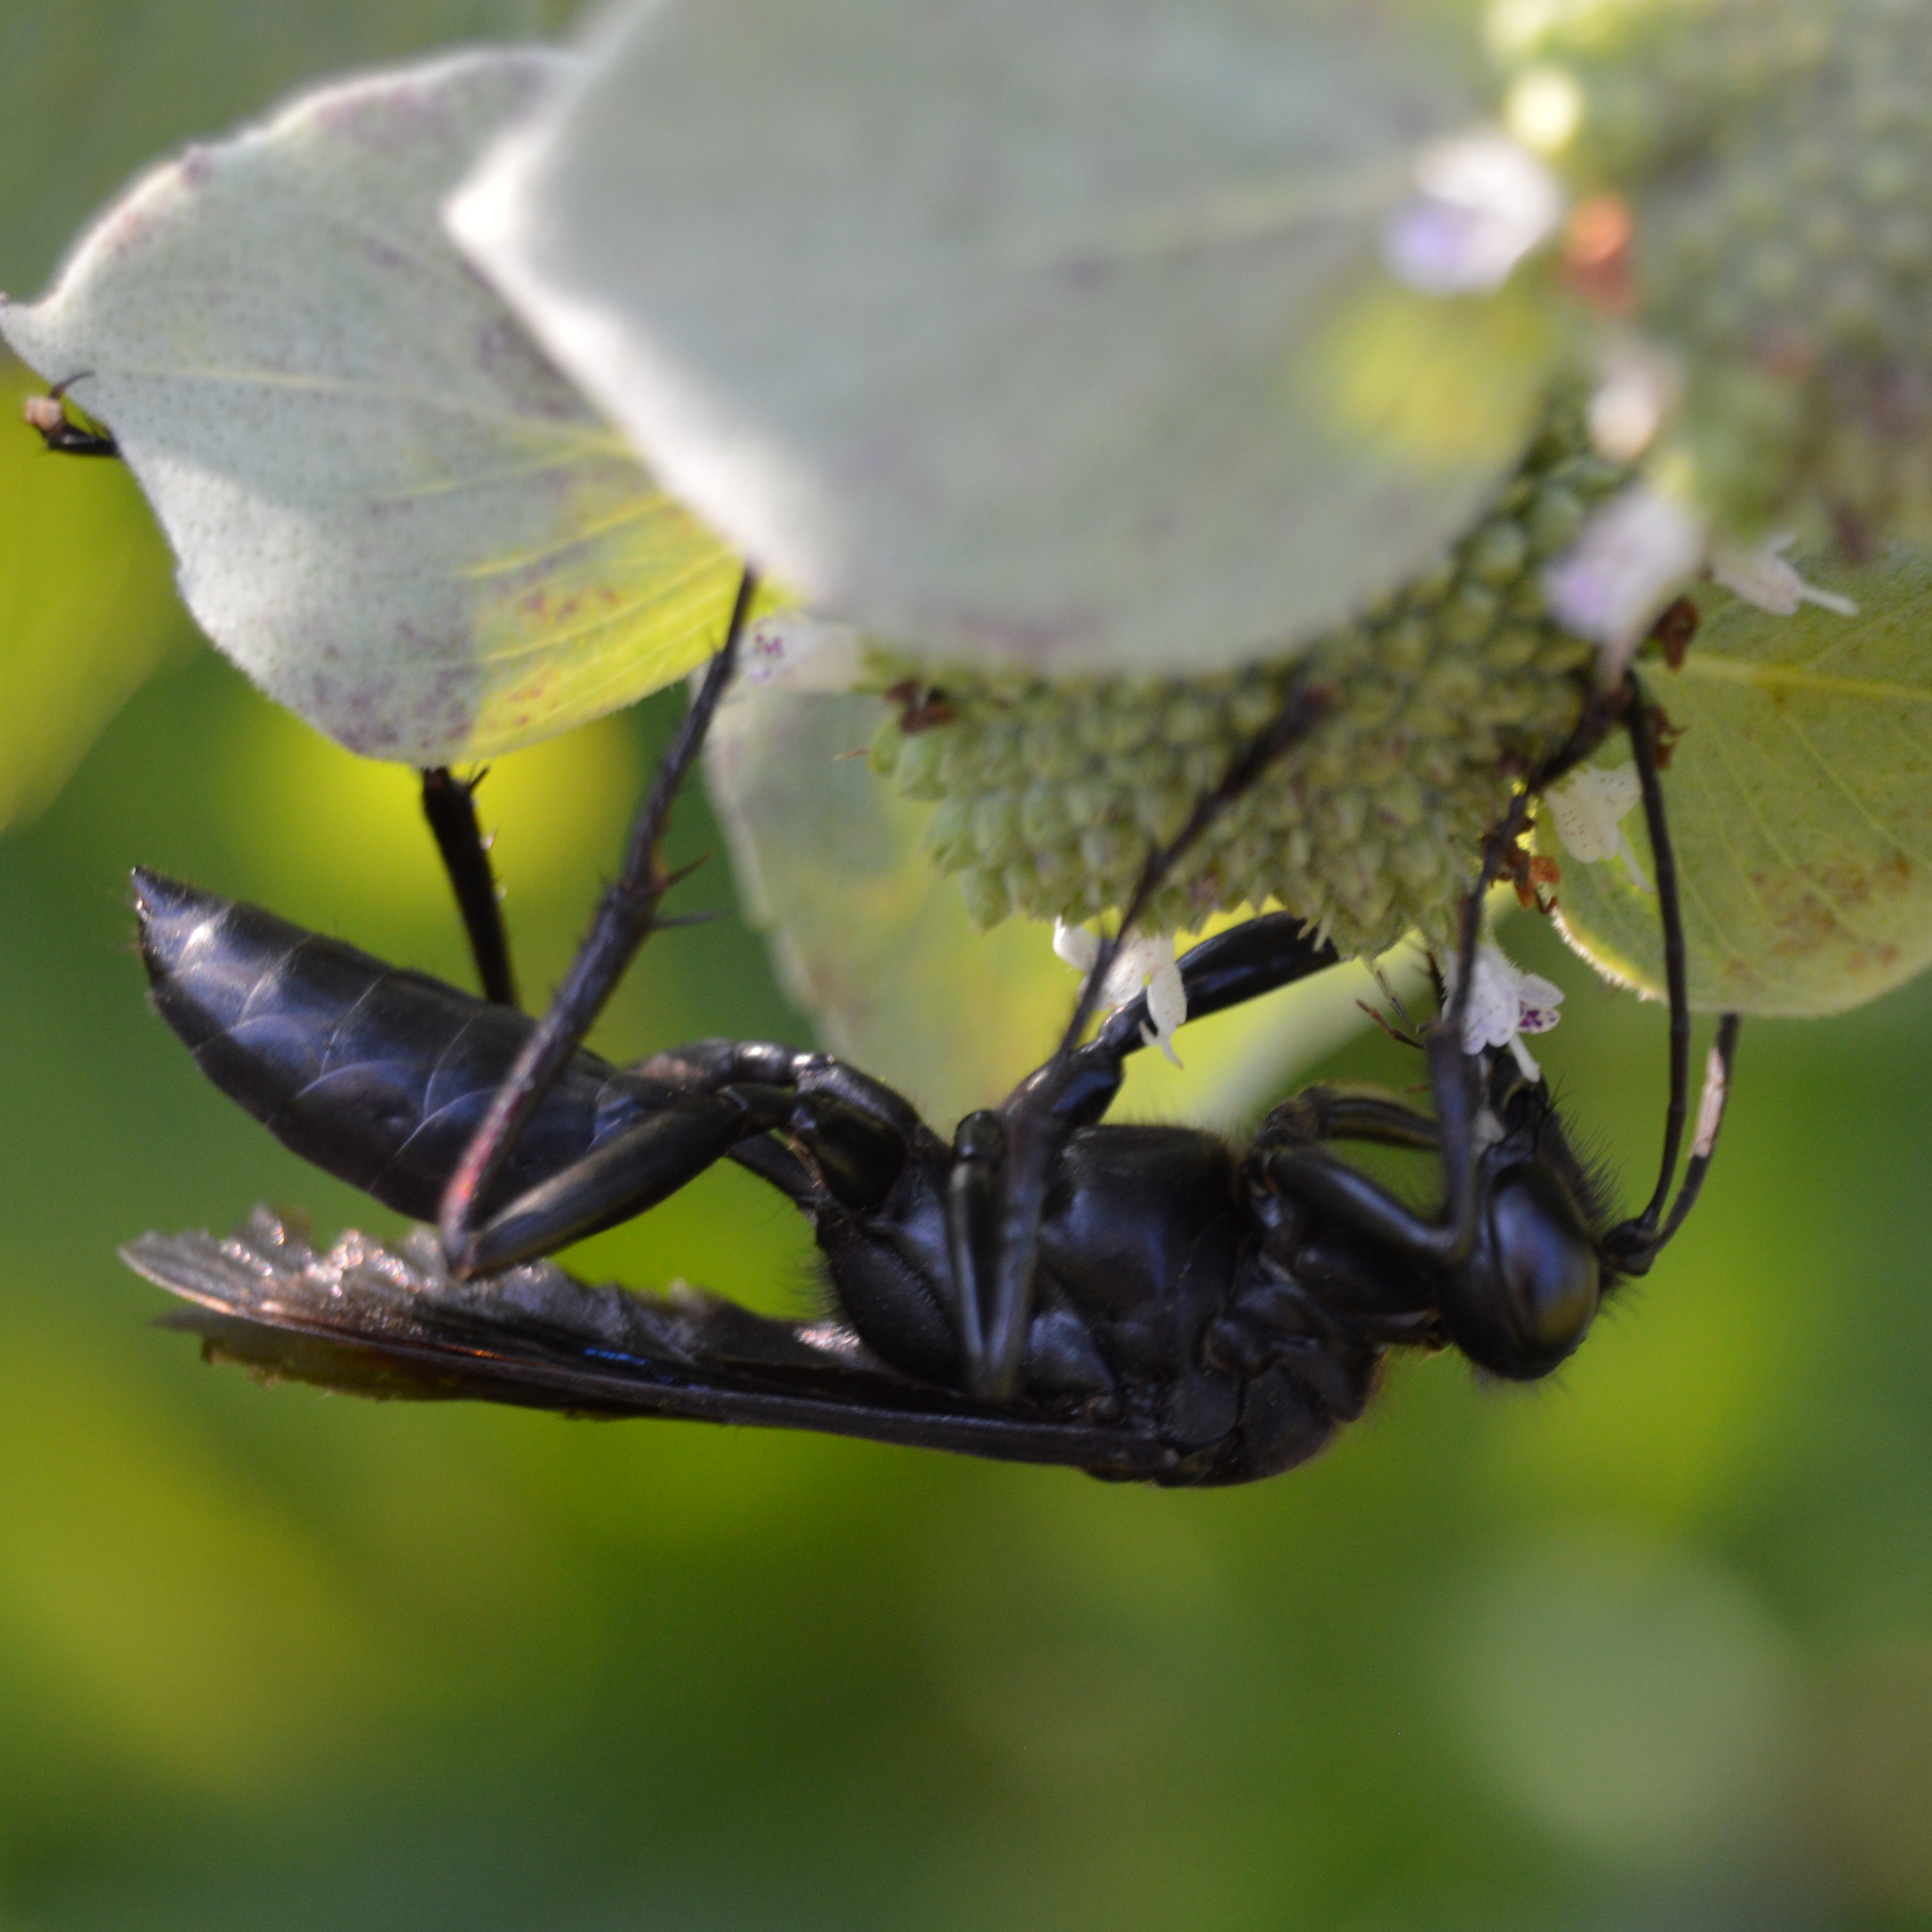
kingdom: Animalia
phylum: Arthropoda
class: Insecta
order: Hymenoptera
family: Sphecidae
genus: Sphex
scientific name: Sphex pensylvanicus
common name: Great black digger wasp
